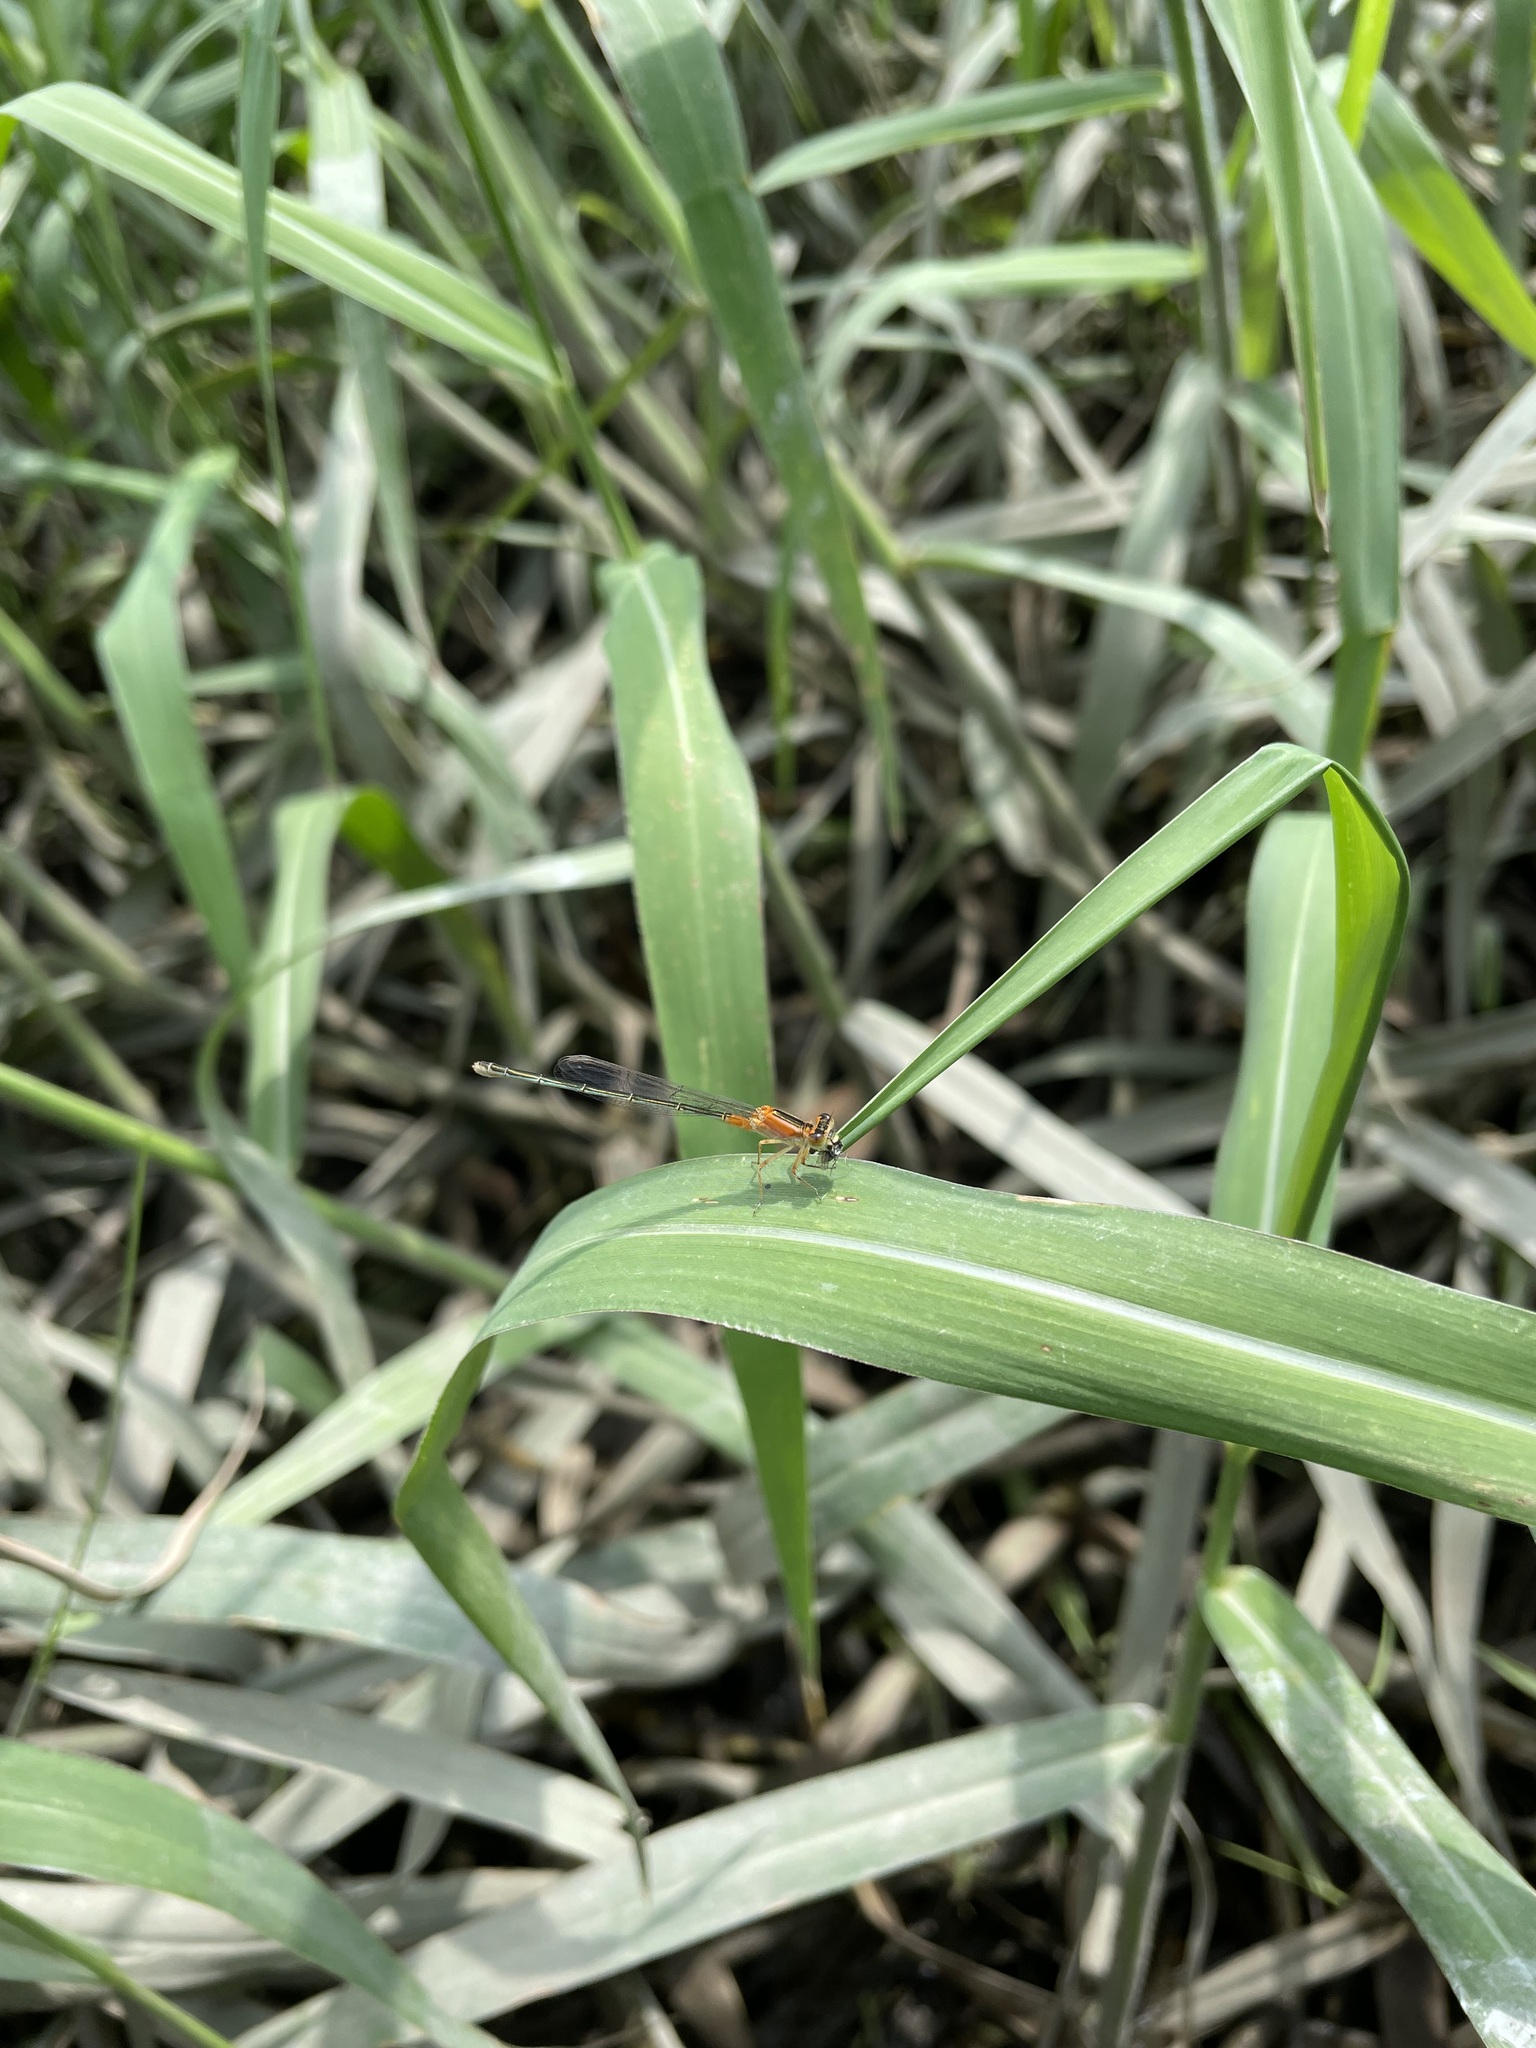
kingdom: Animalia
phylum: Arthropoda
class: Insecta
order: Odonata
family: Coenagrionidae
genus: Ischnura
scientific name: Ischnura senegalensis
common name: Tropical bluetail
